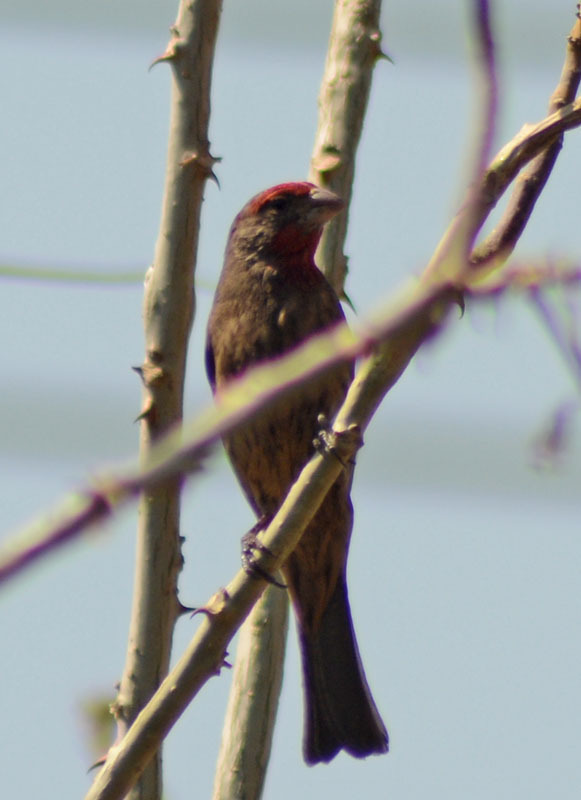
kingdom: Animalia
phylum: Chordata
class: Aves
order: Passeriformes
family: Fringillidae
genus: Haemorhous
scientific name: Haemorhous mexicanus
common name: House finch
